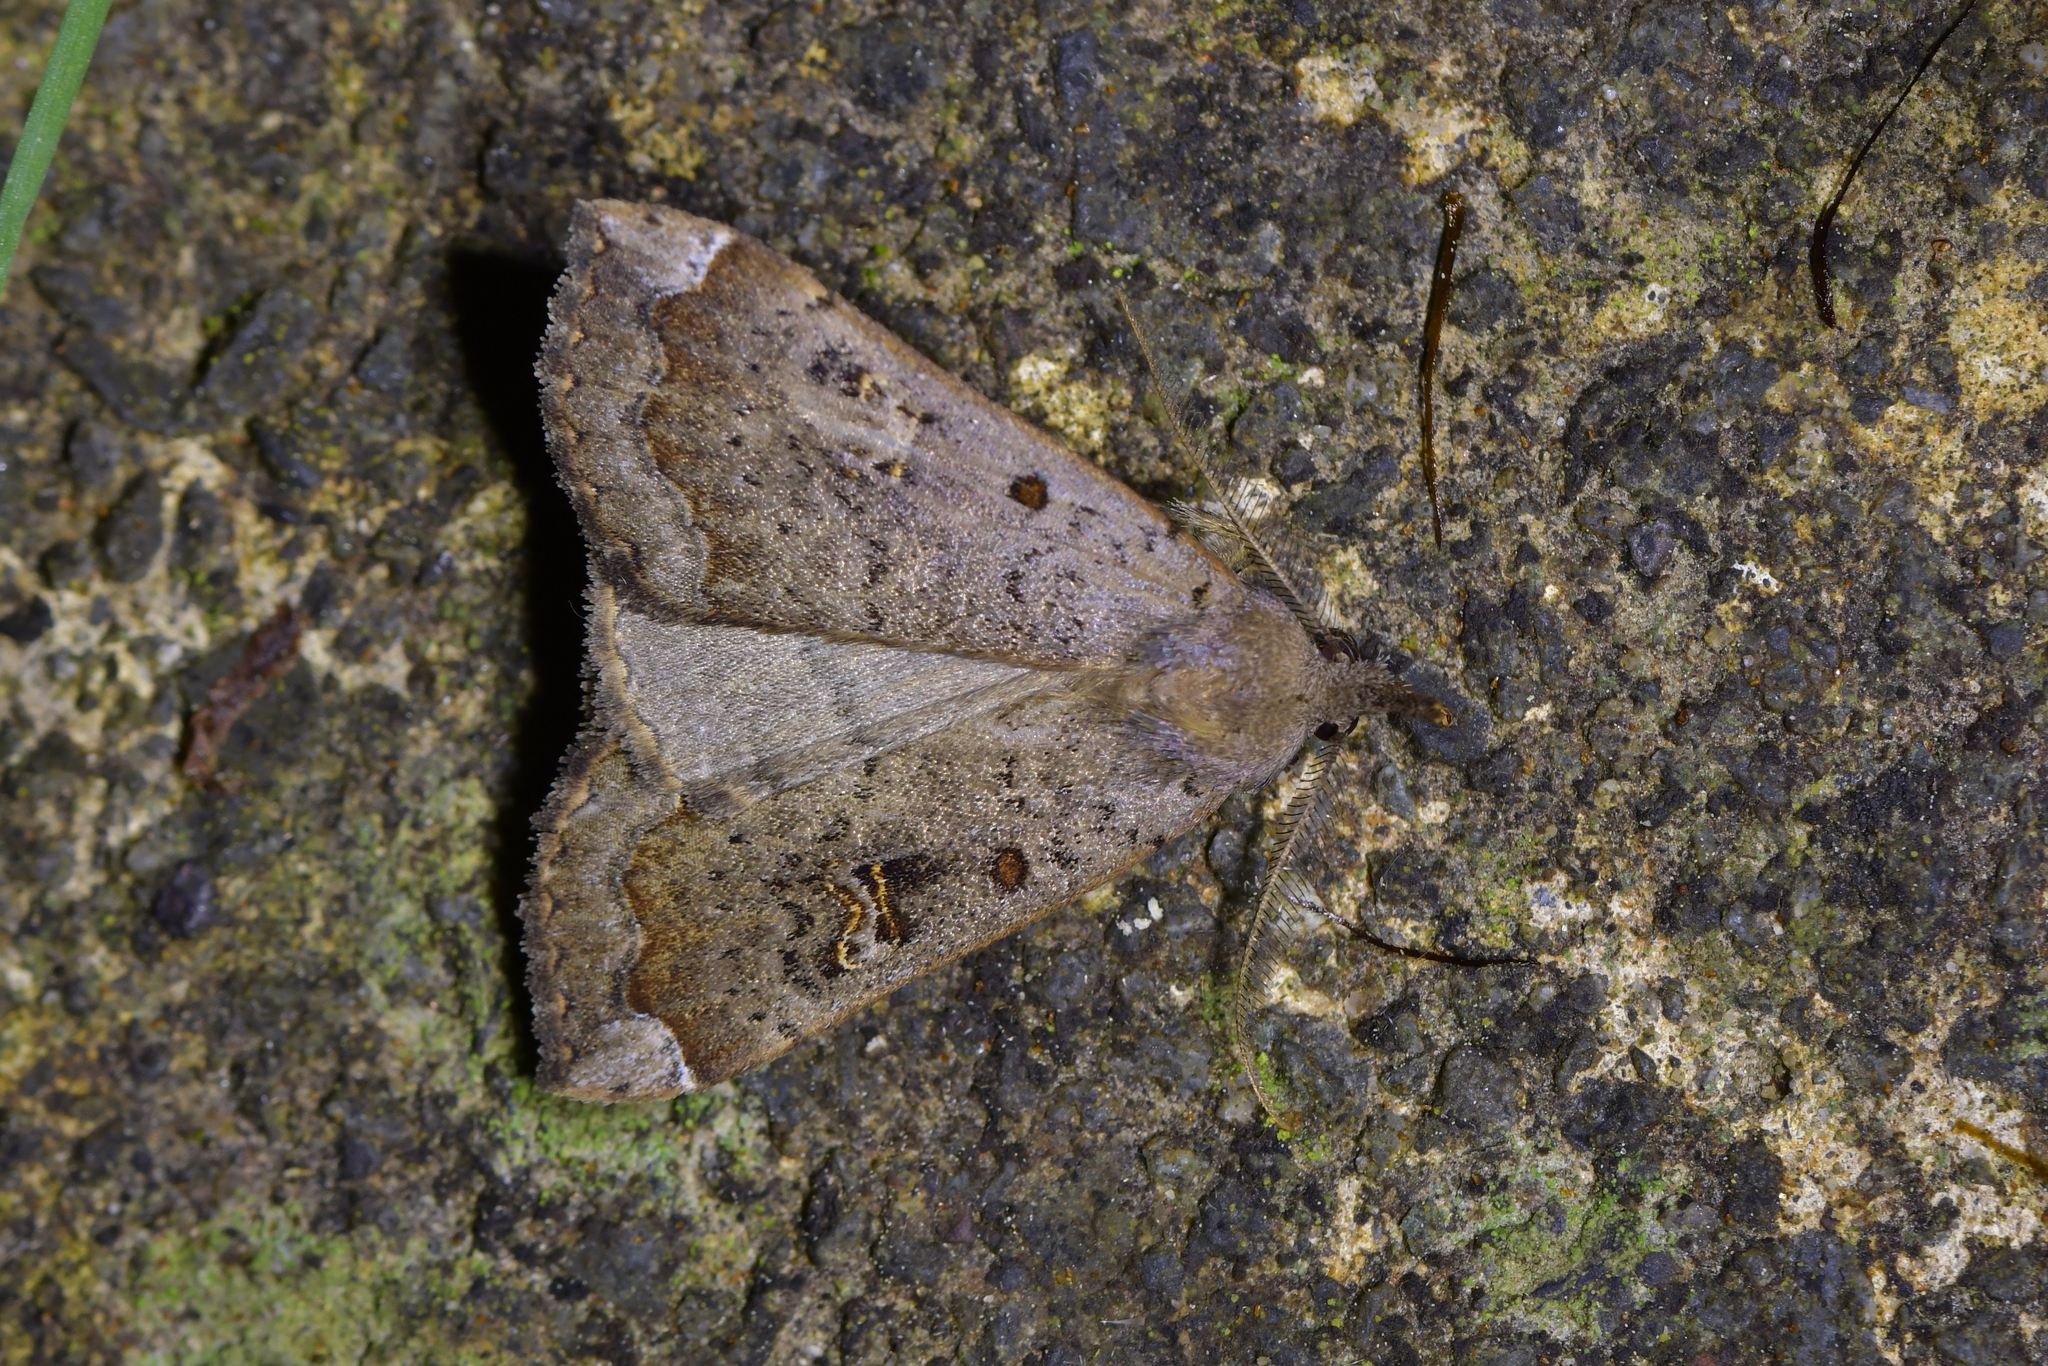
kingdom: Animalia
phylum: Arthropoda
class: Insecta
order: Lepidoptera
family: Erebidae
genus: Rhapsa
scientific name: Rhapsa scotosialis
